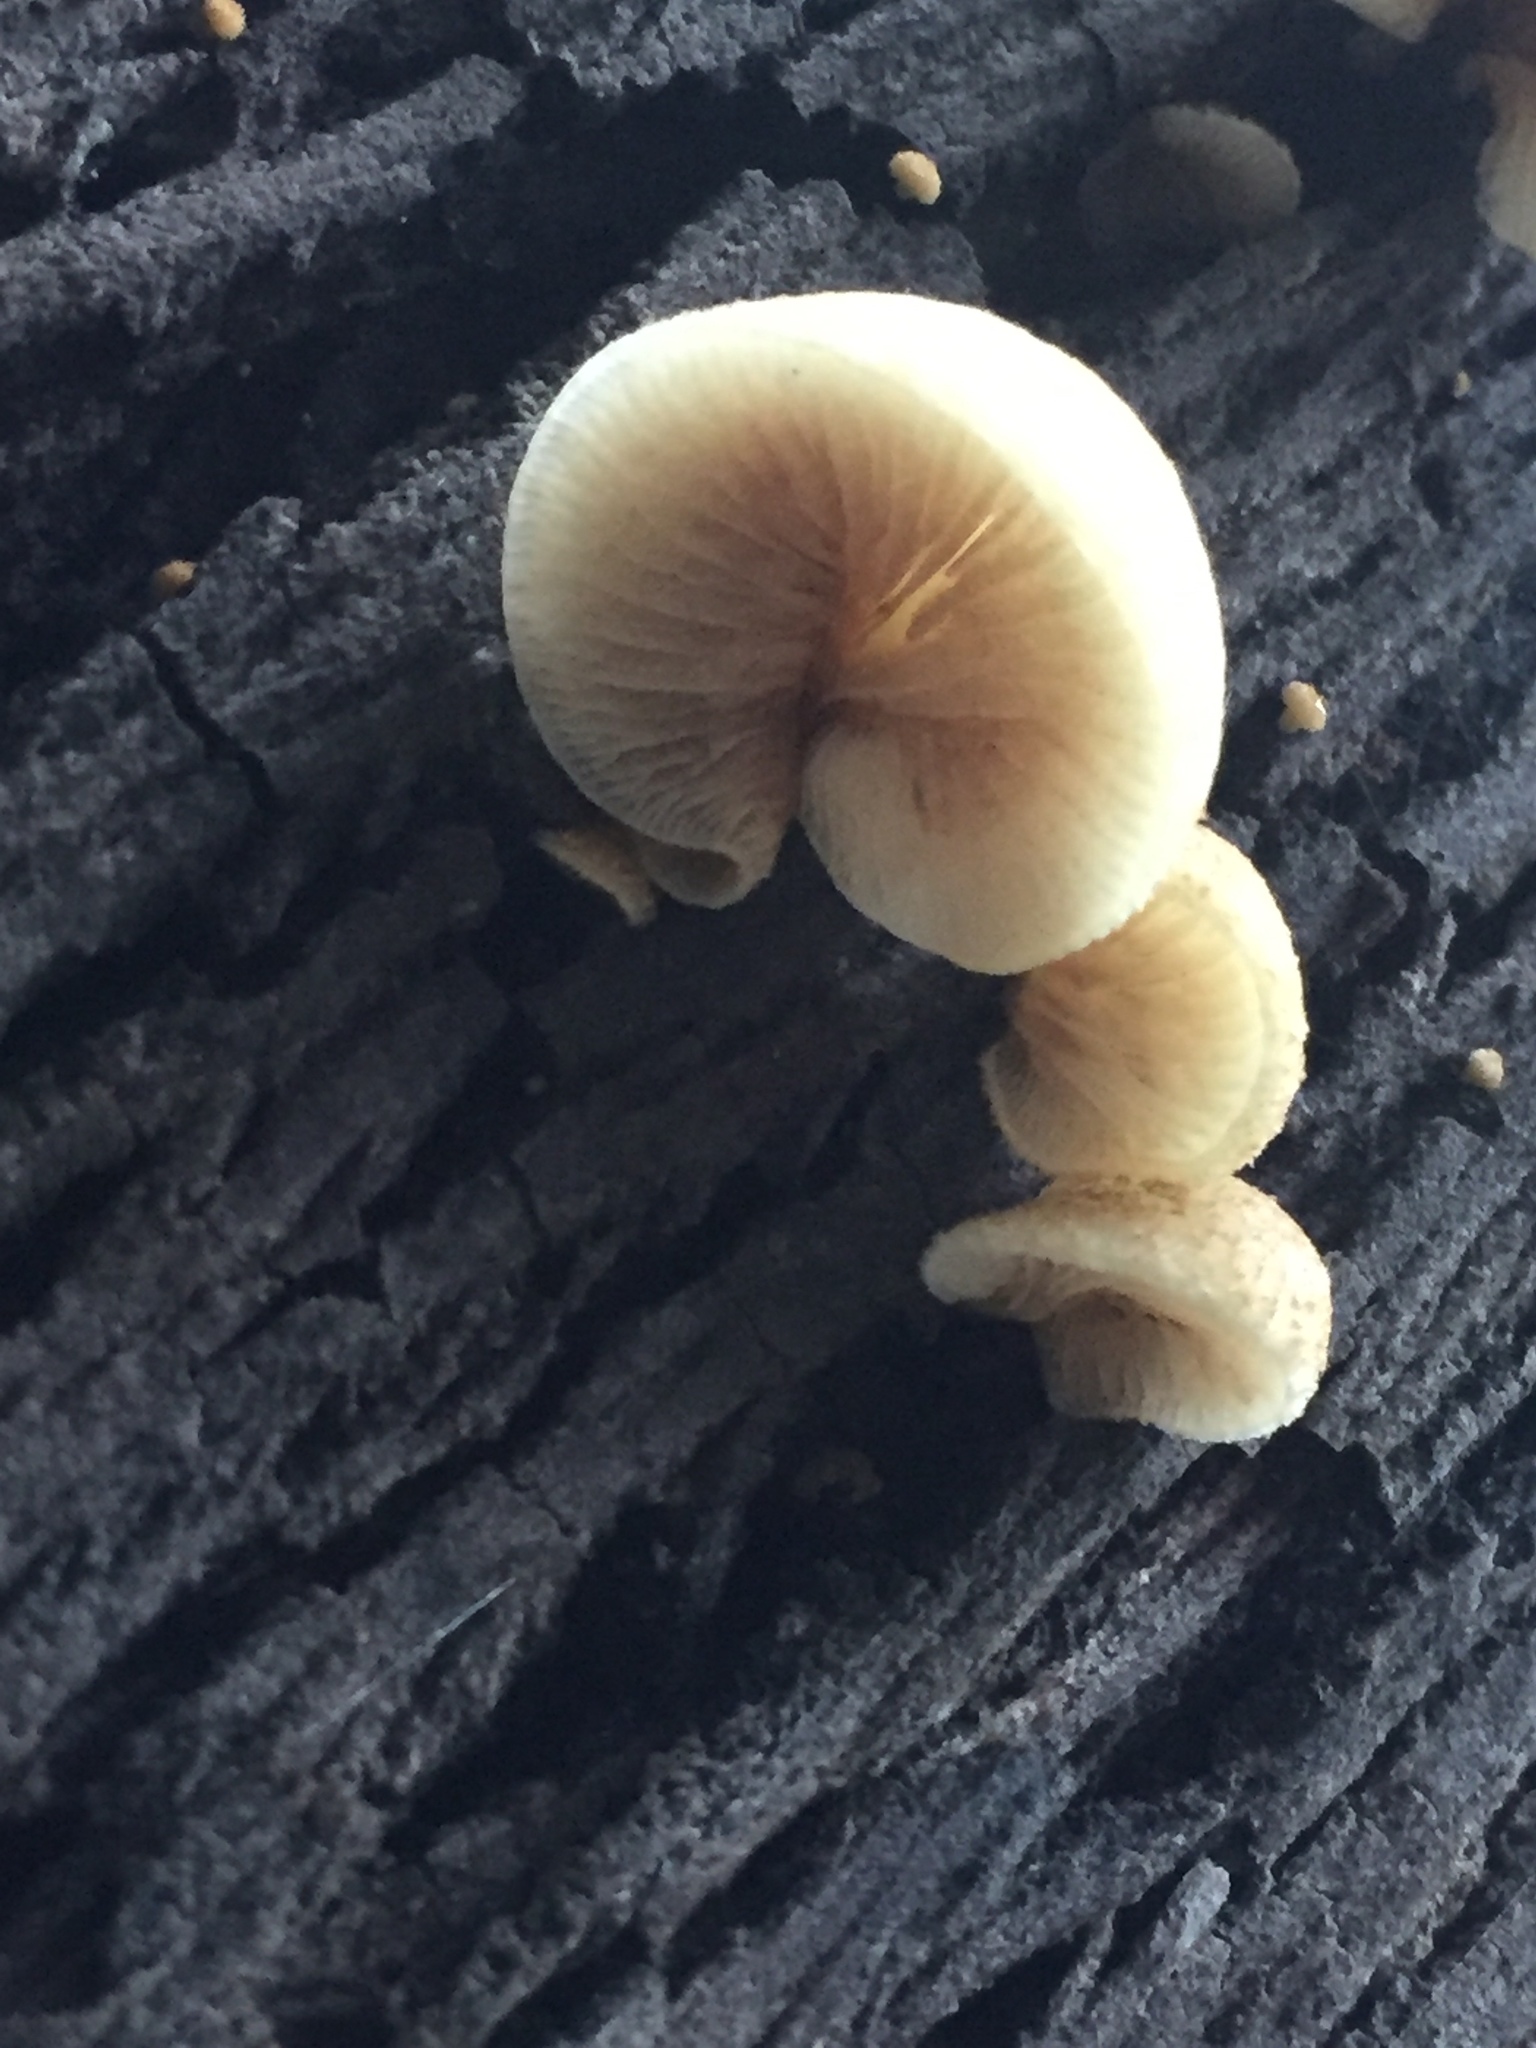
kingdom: Fungi
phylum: Basidiomycota
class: Agaricomycetes
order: Agaricales
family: Crepidotaceae
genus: Crepidotus
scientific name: Crepidotus mollis
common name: Peeling oysterling
